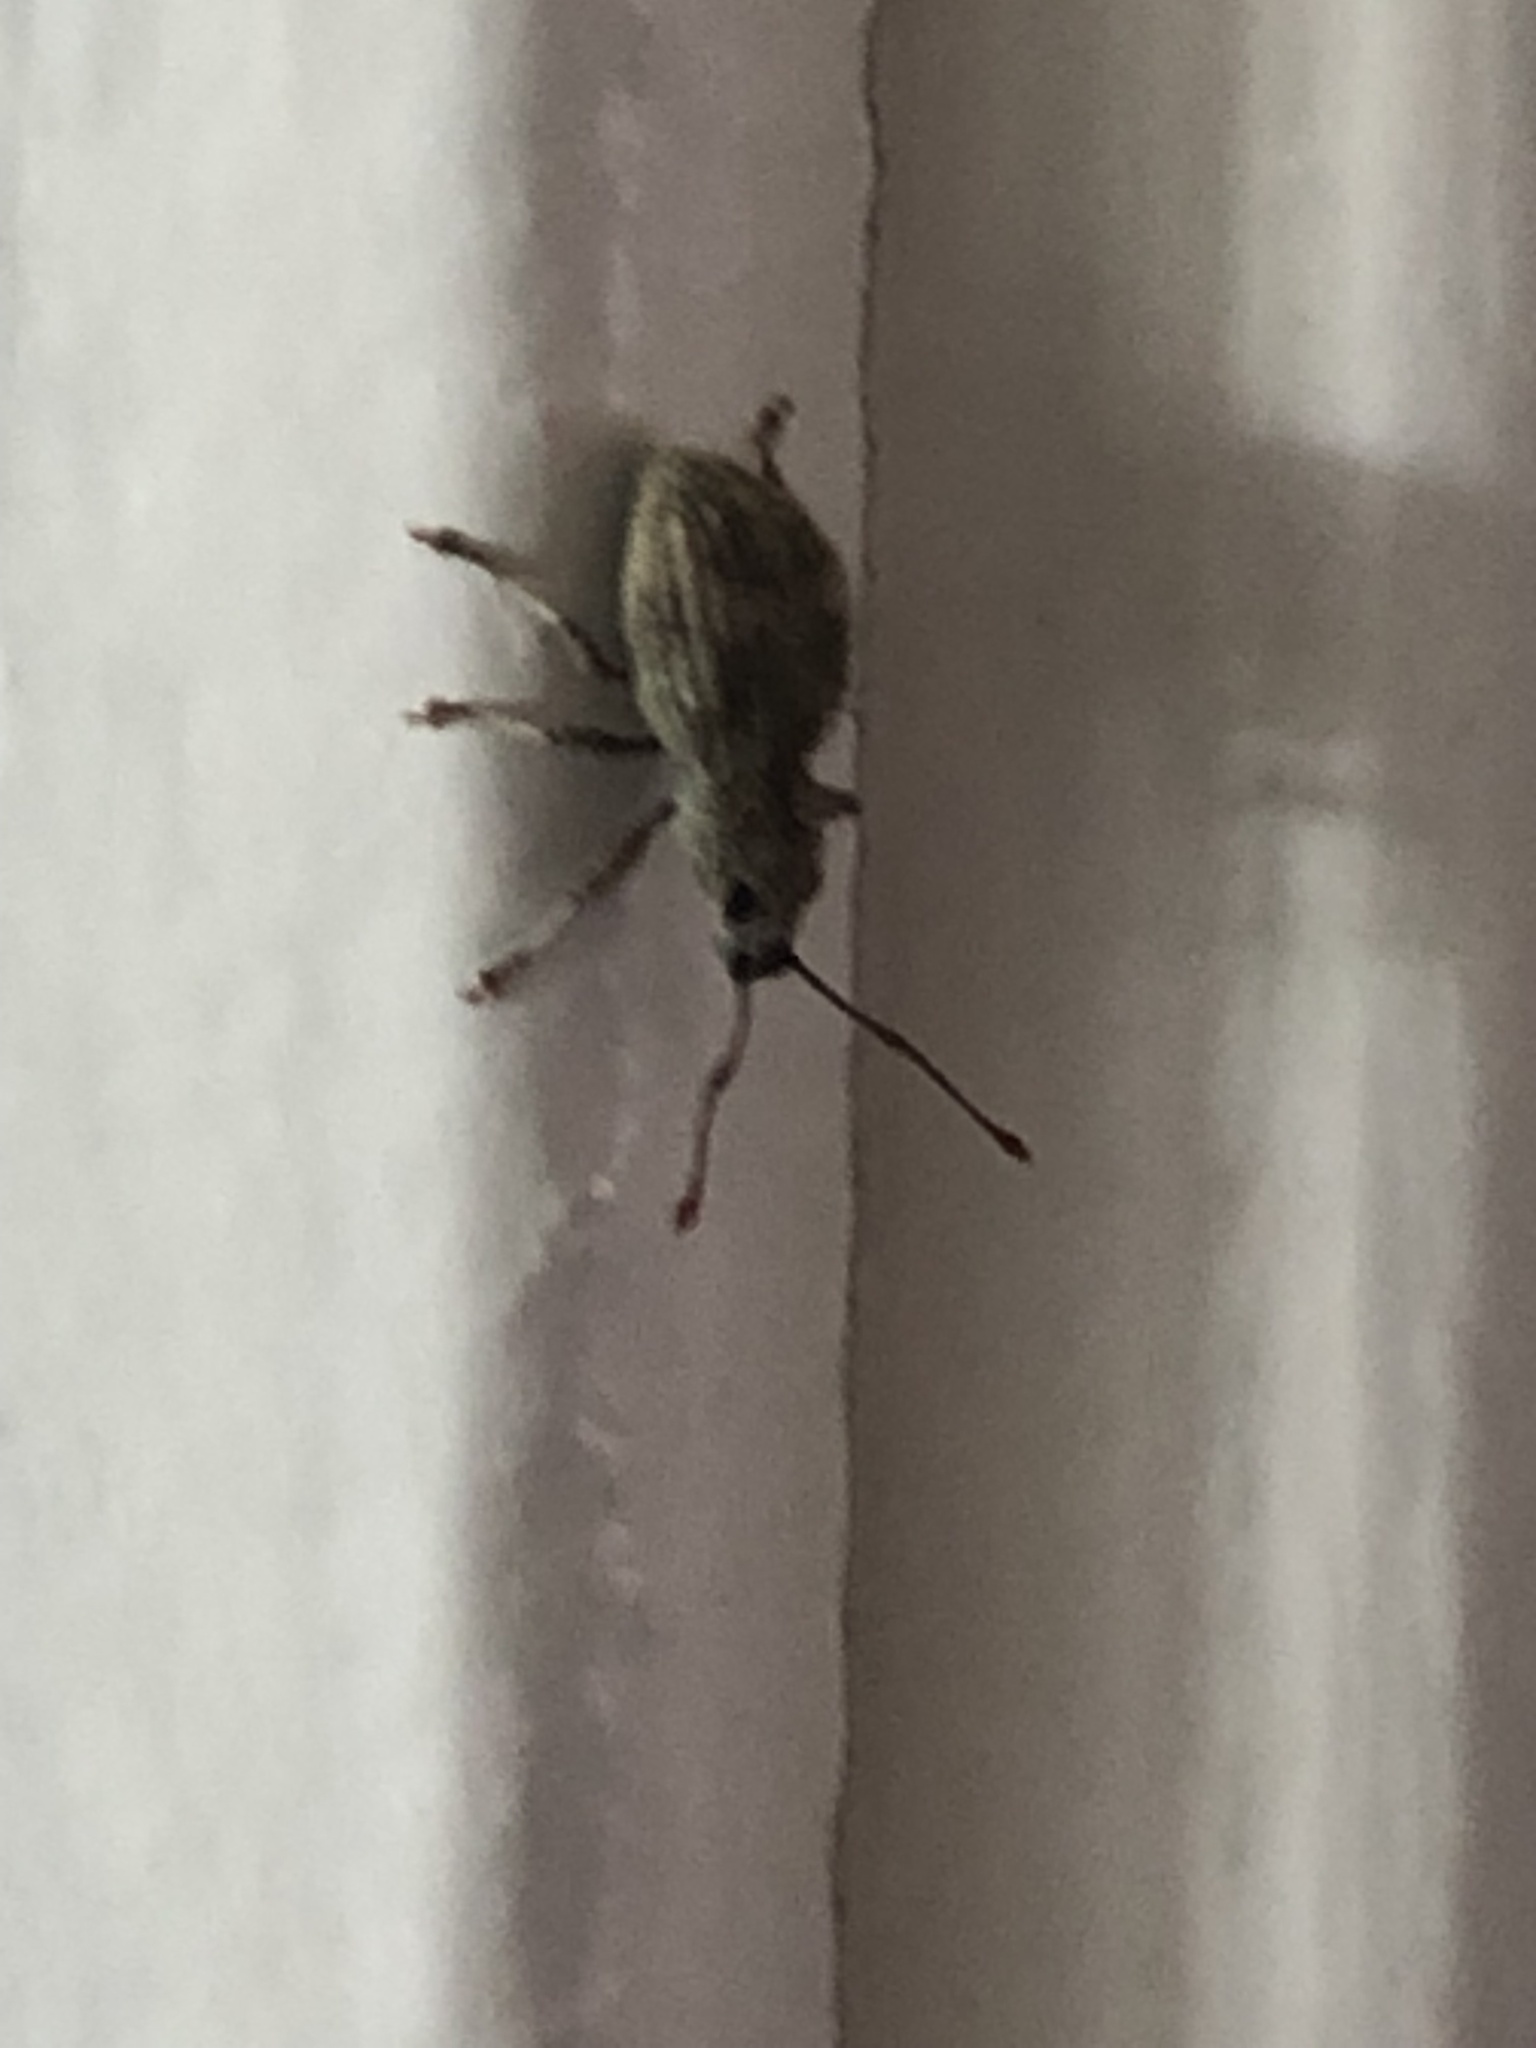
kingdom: Animalia
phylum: Arthropoda
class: Insecta
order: Coleoptera
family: Curculionidae
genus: Calomycterus
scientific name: Calomycterus setarius
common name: Weevil
